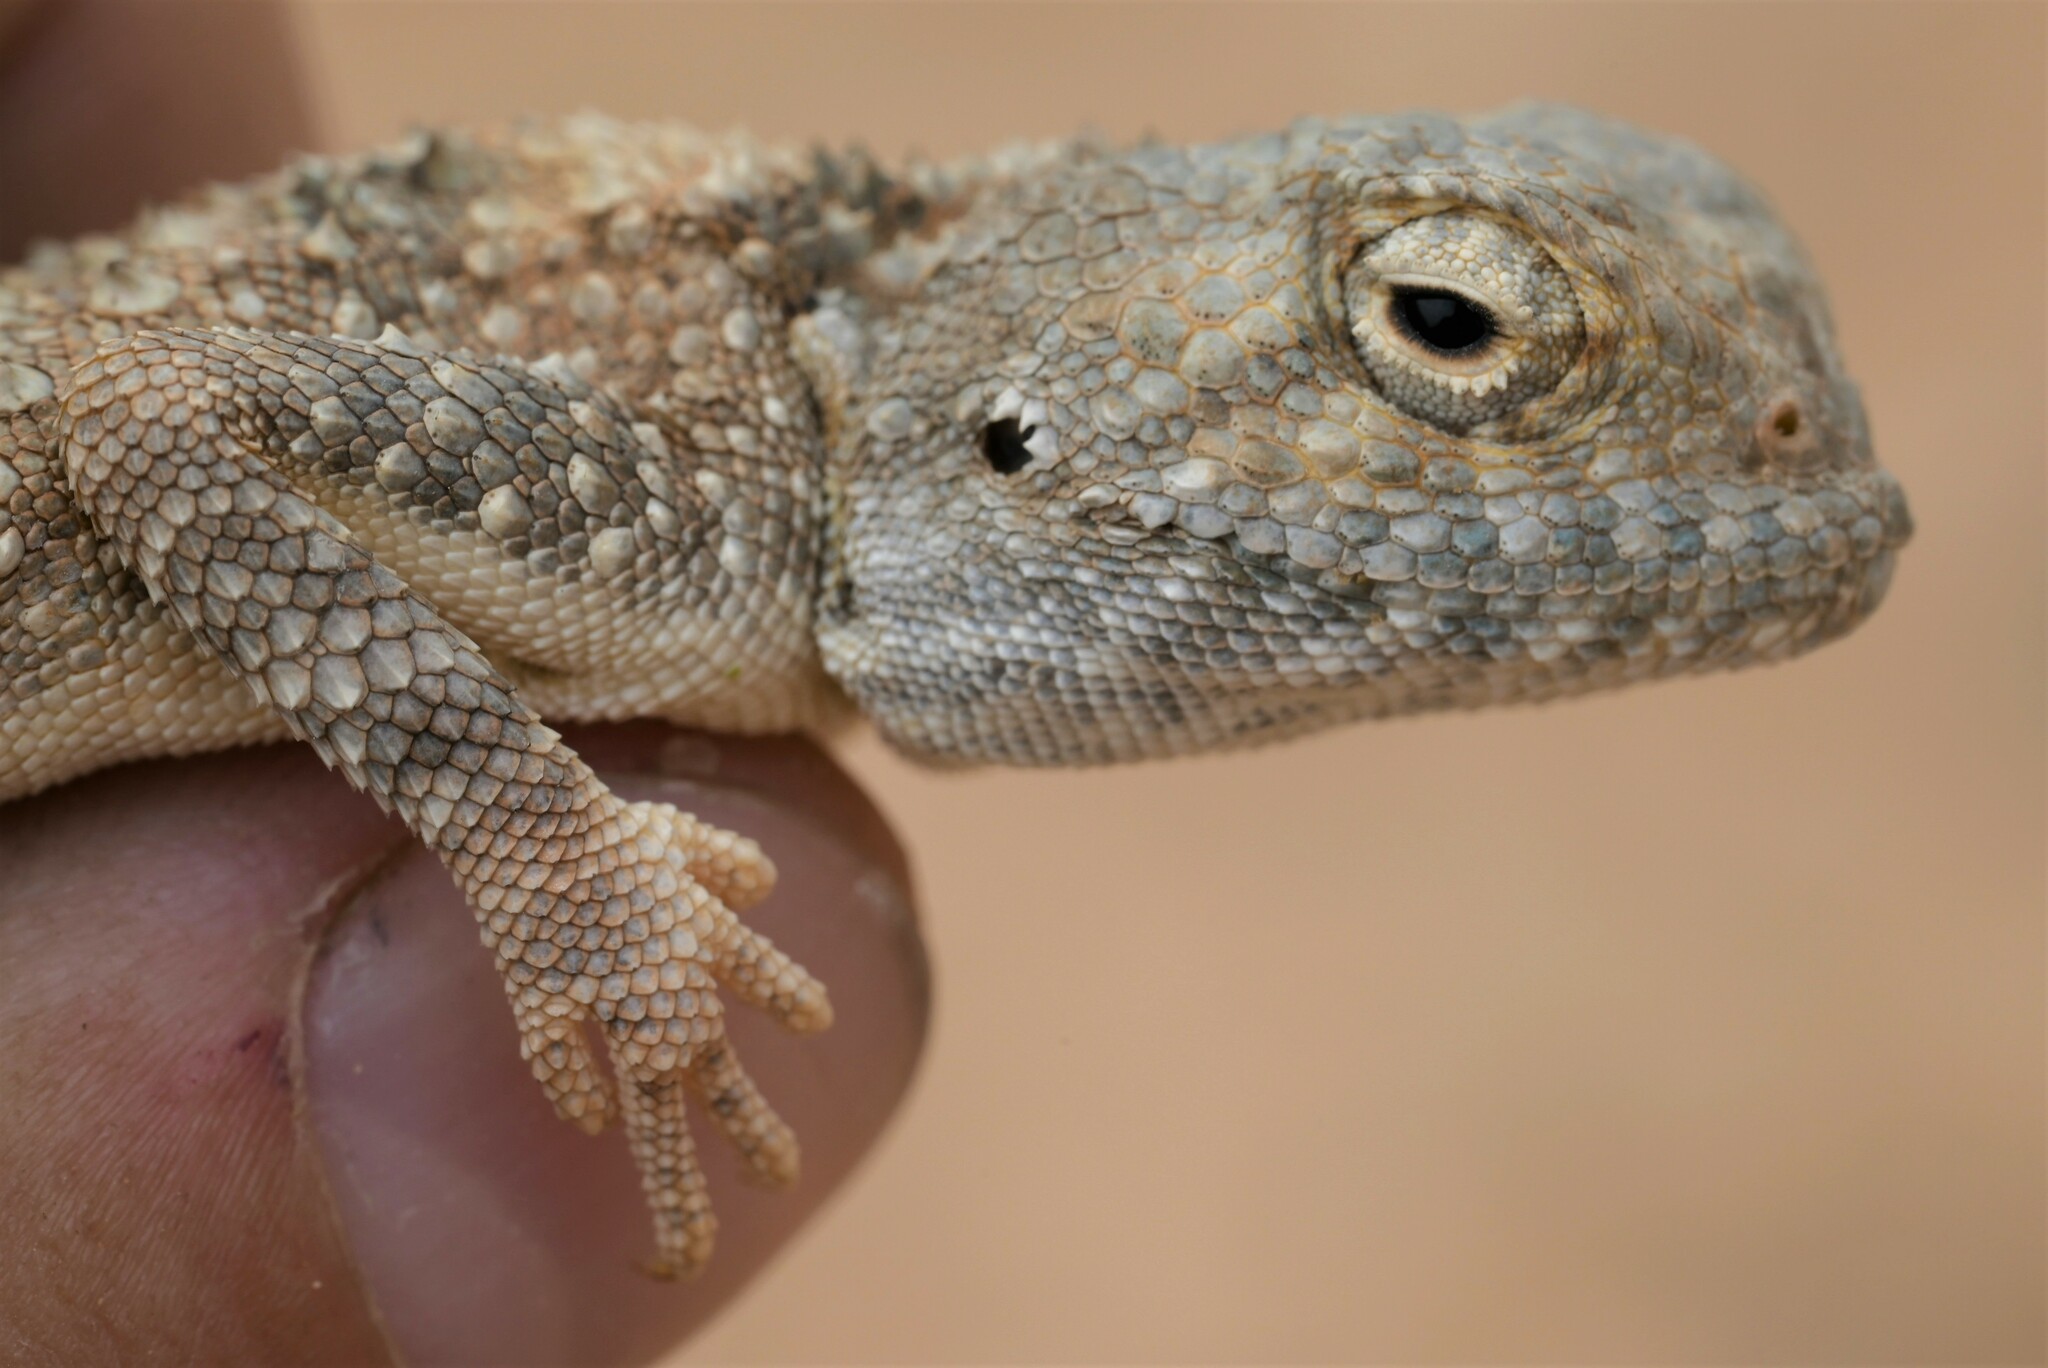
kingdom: Animalia
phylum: Chordata
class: Squamata
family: Agamidae
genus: Trapelus
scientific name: Trapelus agnetae
